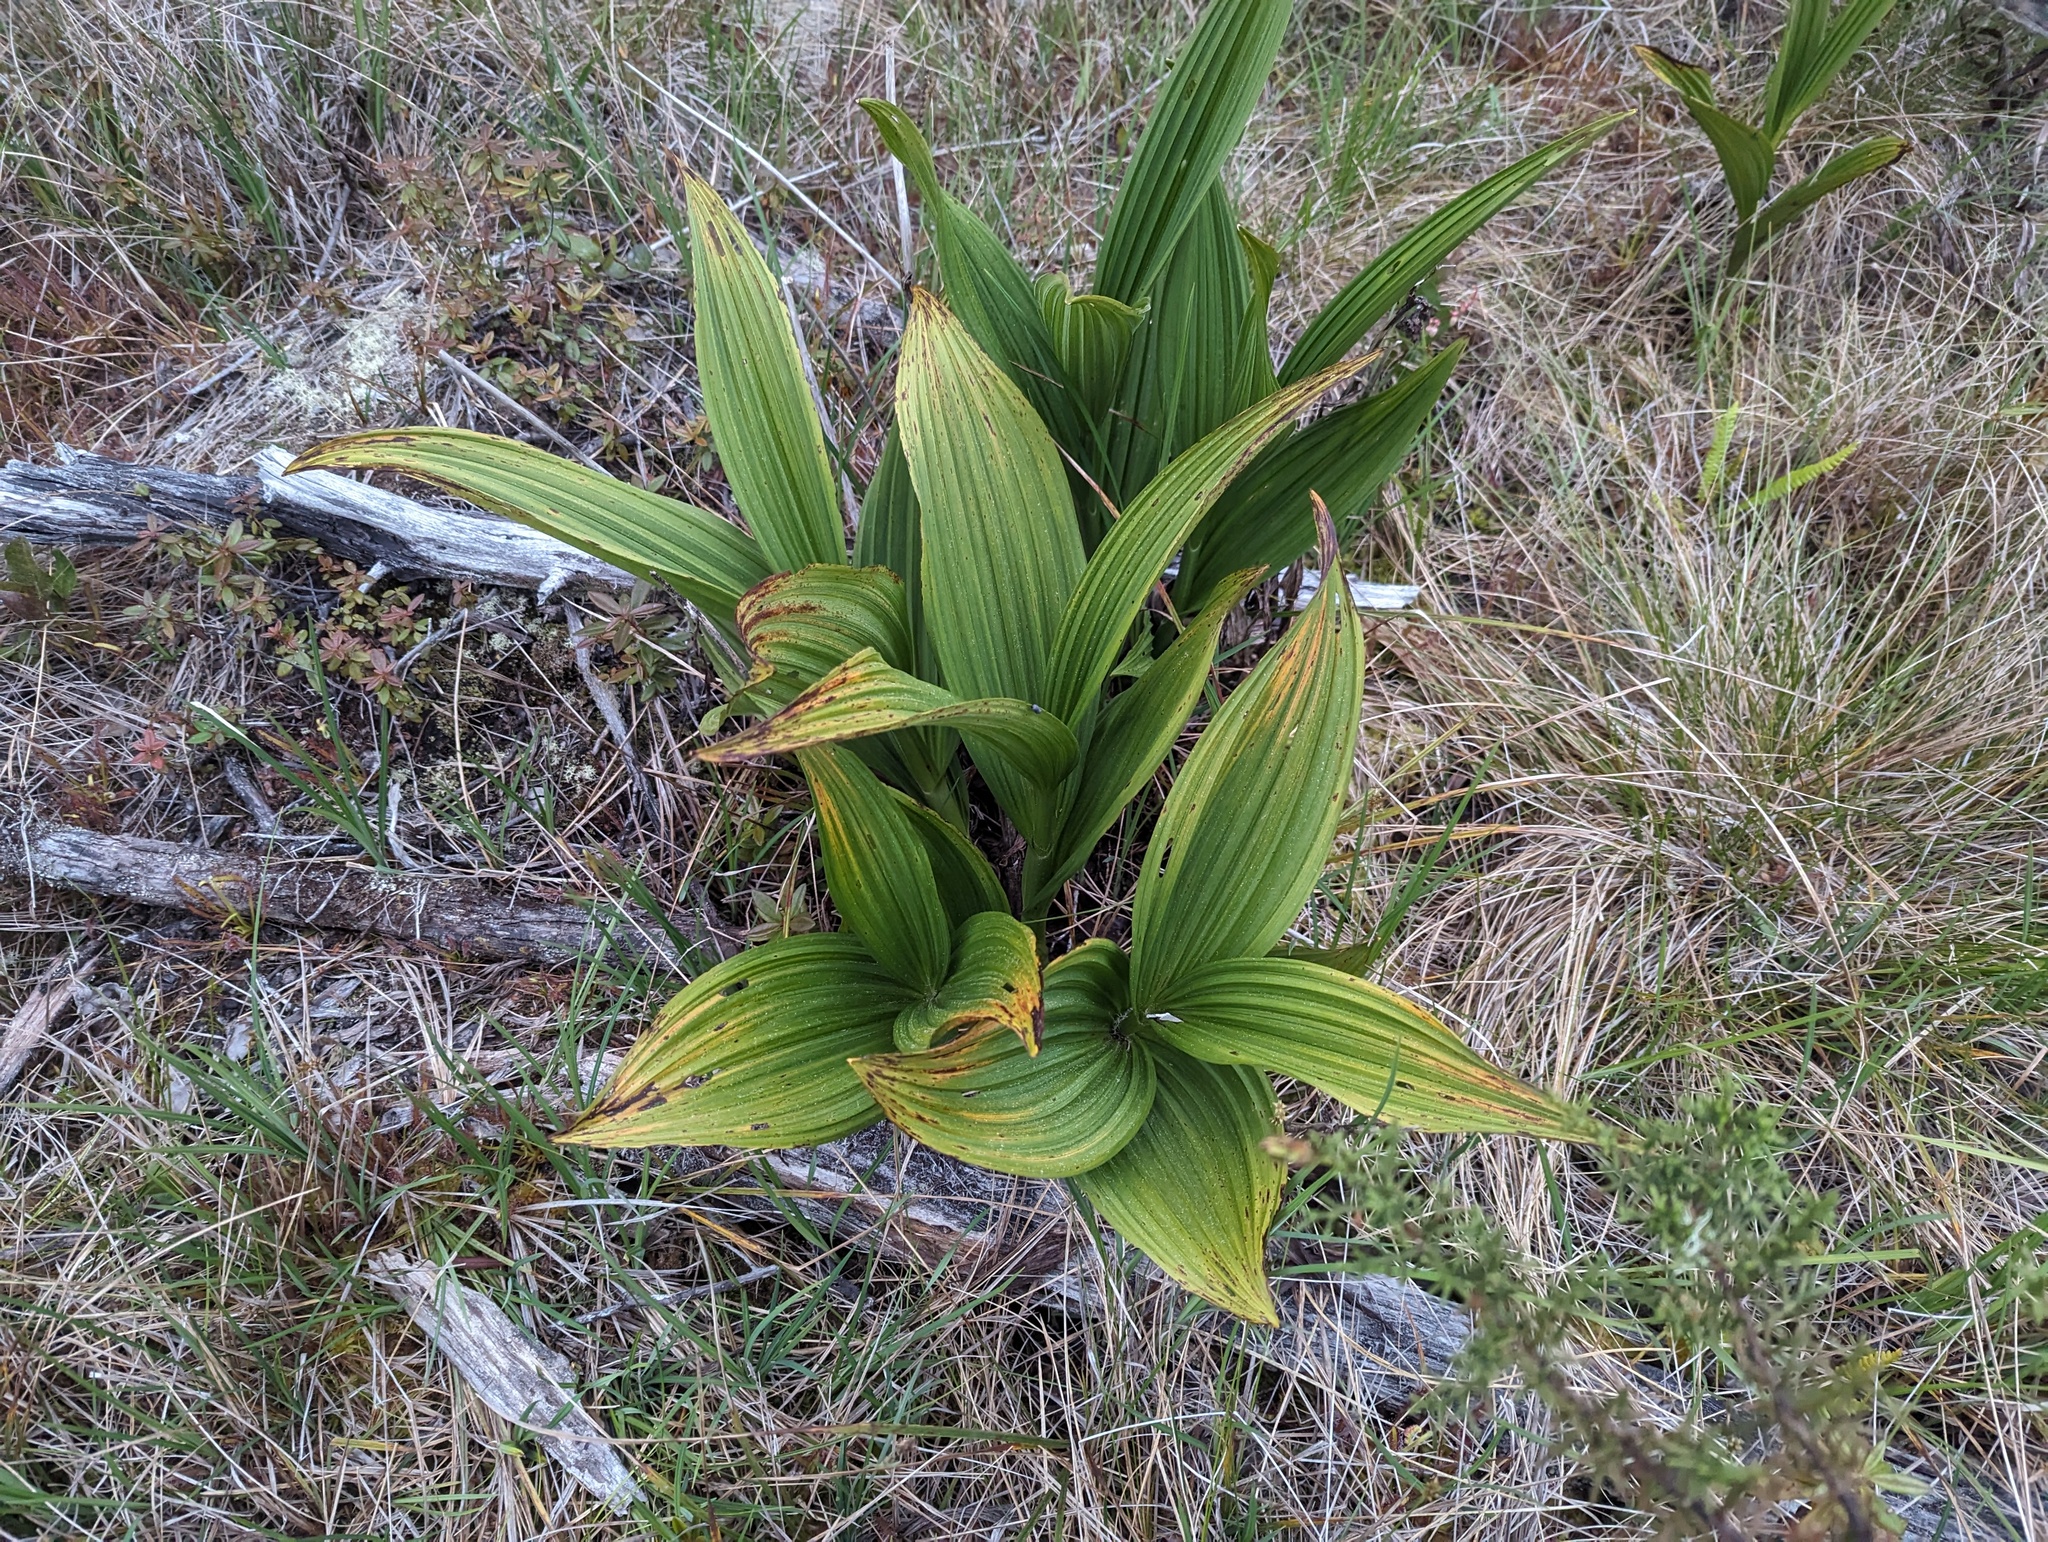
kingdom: Plantae
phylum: Tracheophyta
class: Liliopsida
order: Liliales
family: Melanthiaceae
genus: Veratrum
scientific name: Veratrum fimbriatum
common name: Fringe false hellobore
